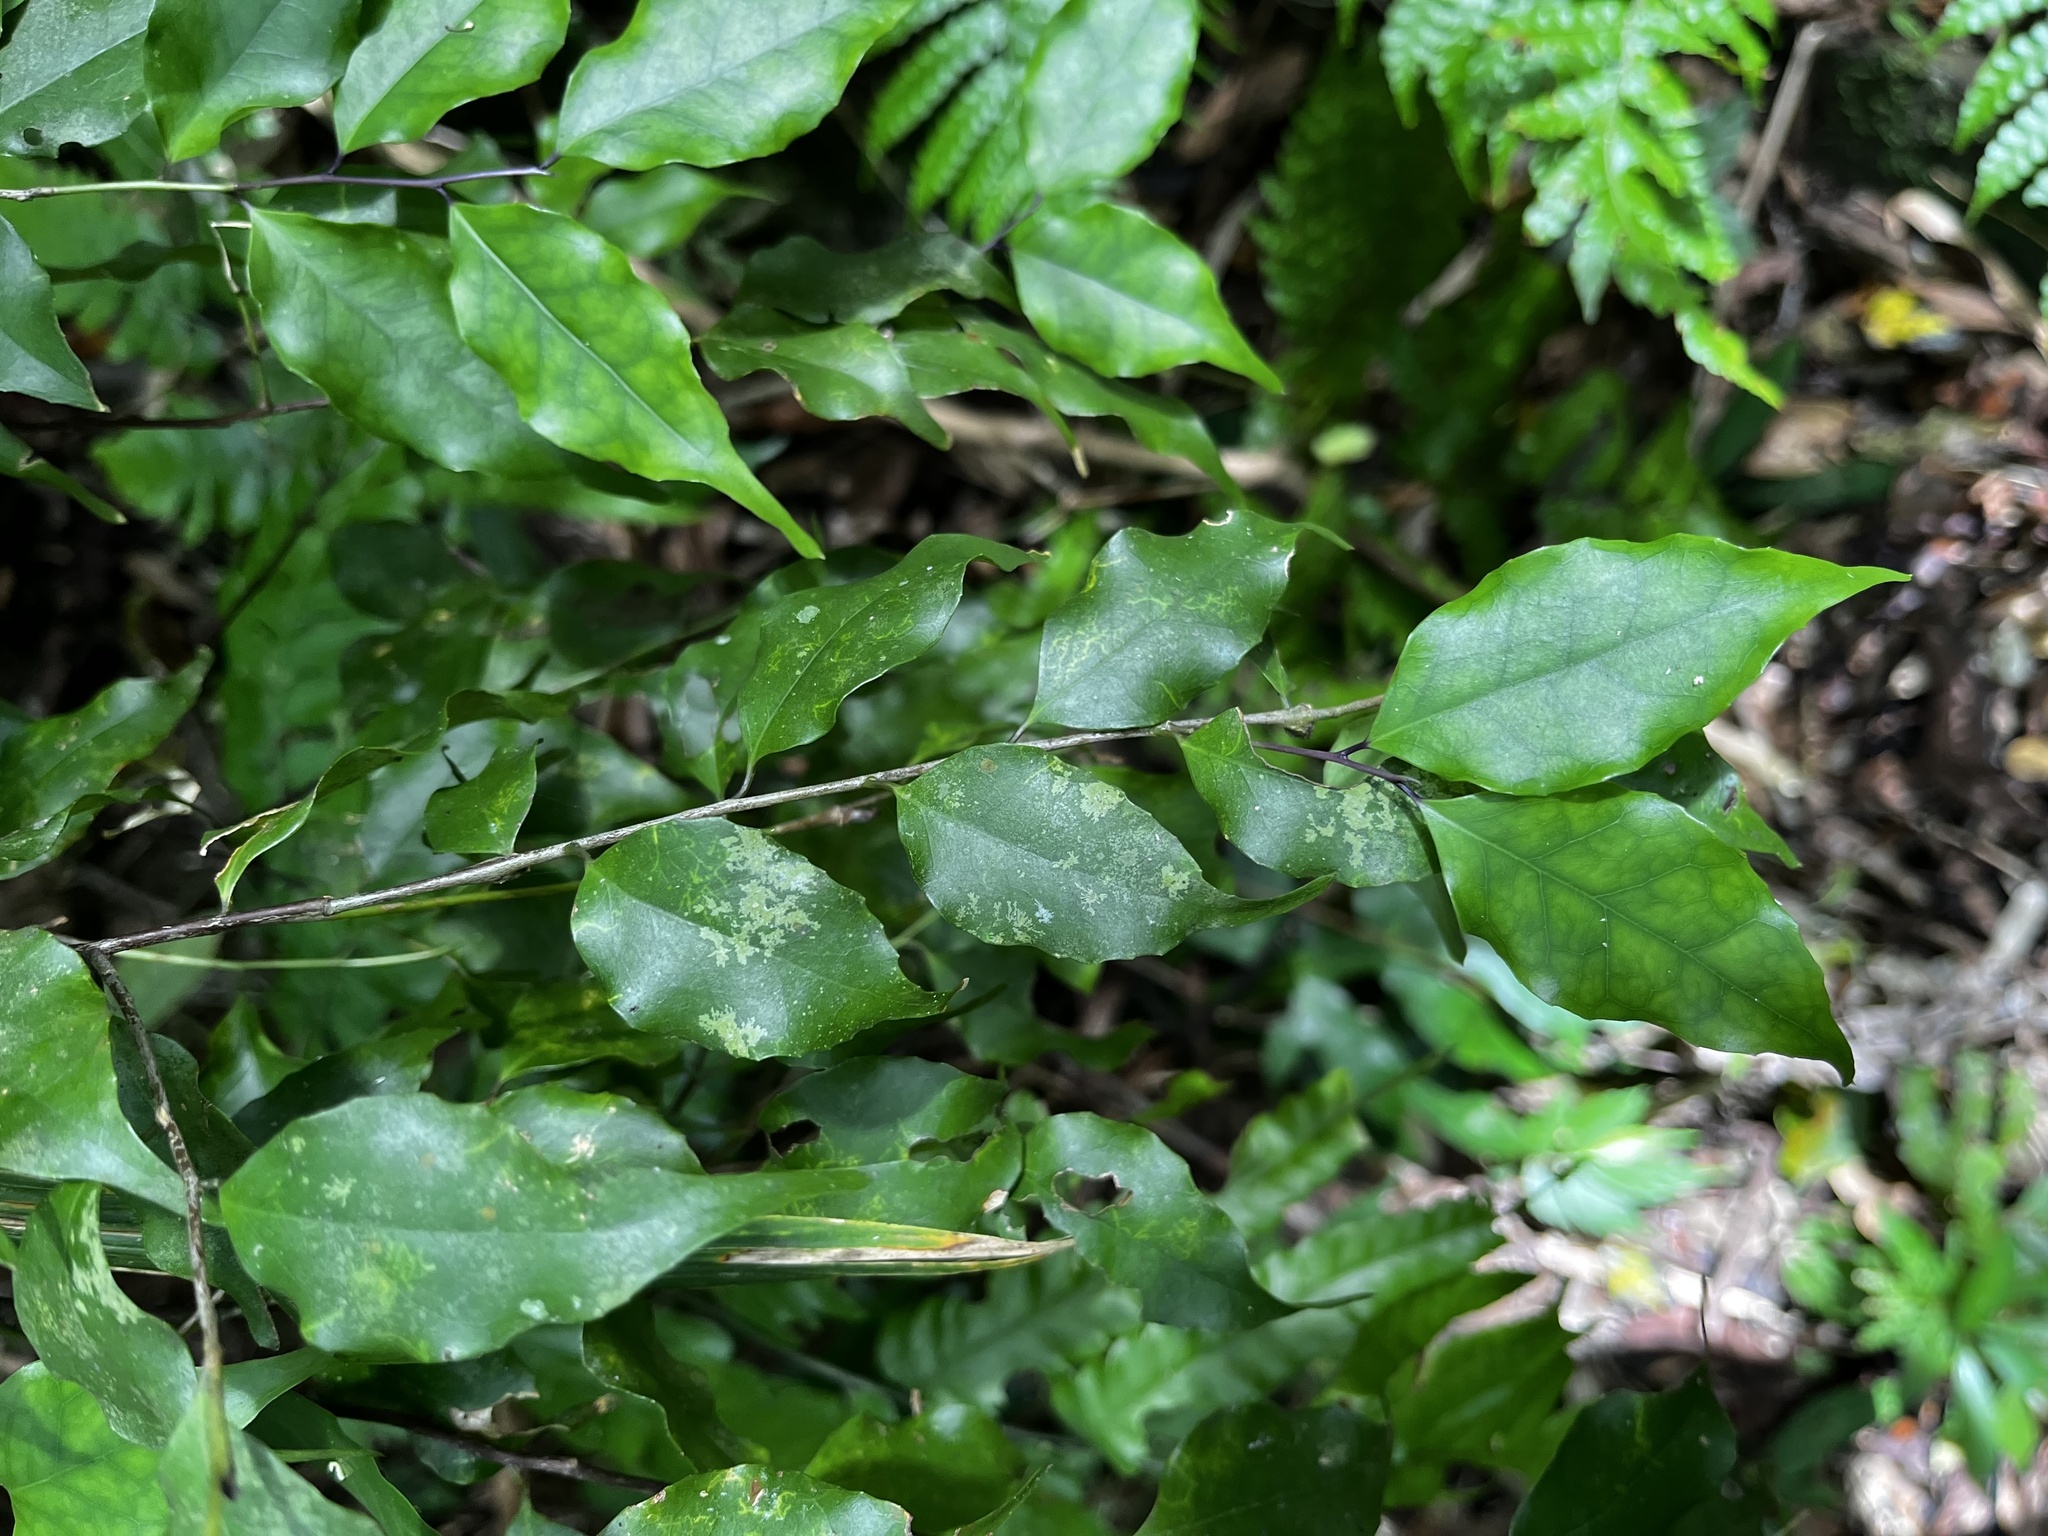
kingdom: Plantae
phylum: Tracheophyta
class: Magnoliopsida
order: Ericales
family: Symplocaceae
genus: Symplocos
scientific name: Symplocos sumuntia
